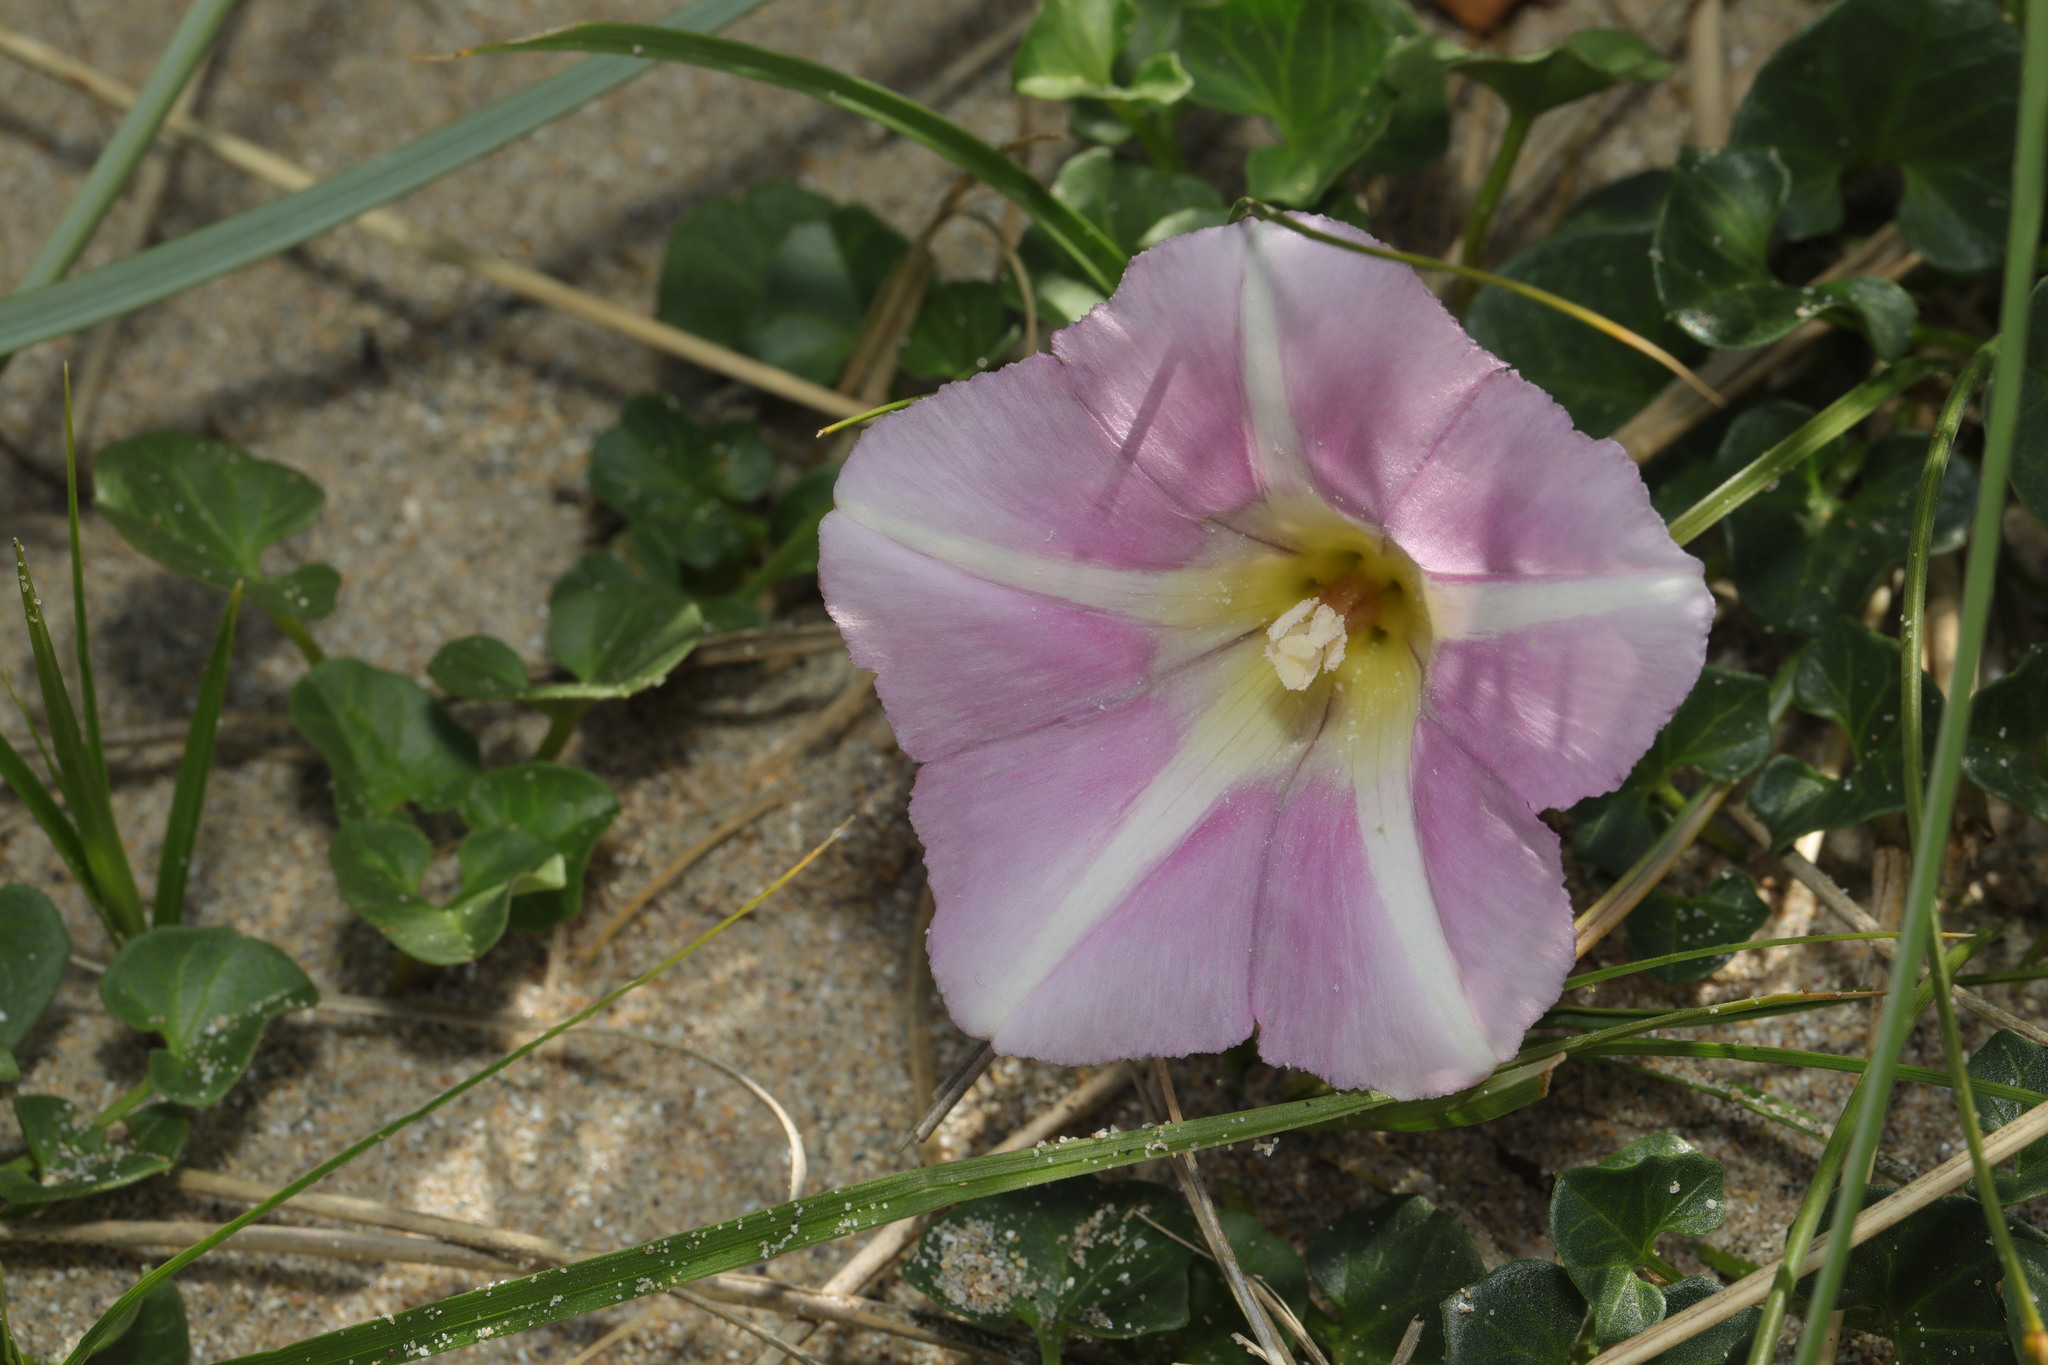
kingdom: Plantae
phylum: Tracheophyta
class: Magnoliopsida
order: Solanales
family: Convolvulaceae
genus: Calystegia
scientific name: Calystegia soldanella
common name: Sea bindweed
